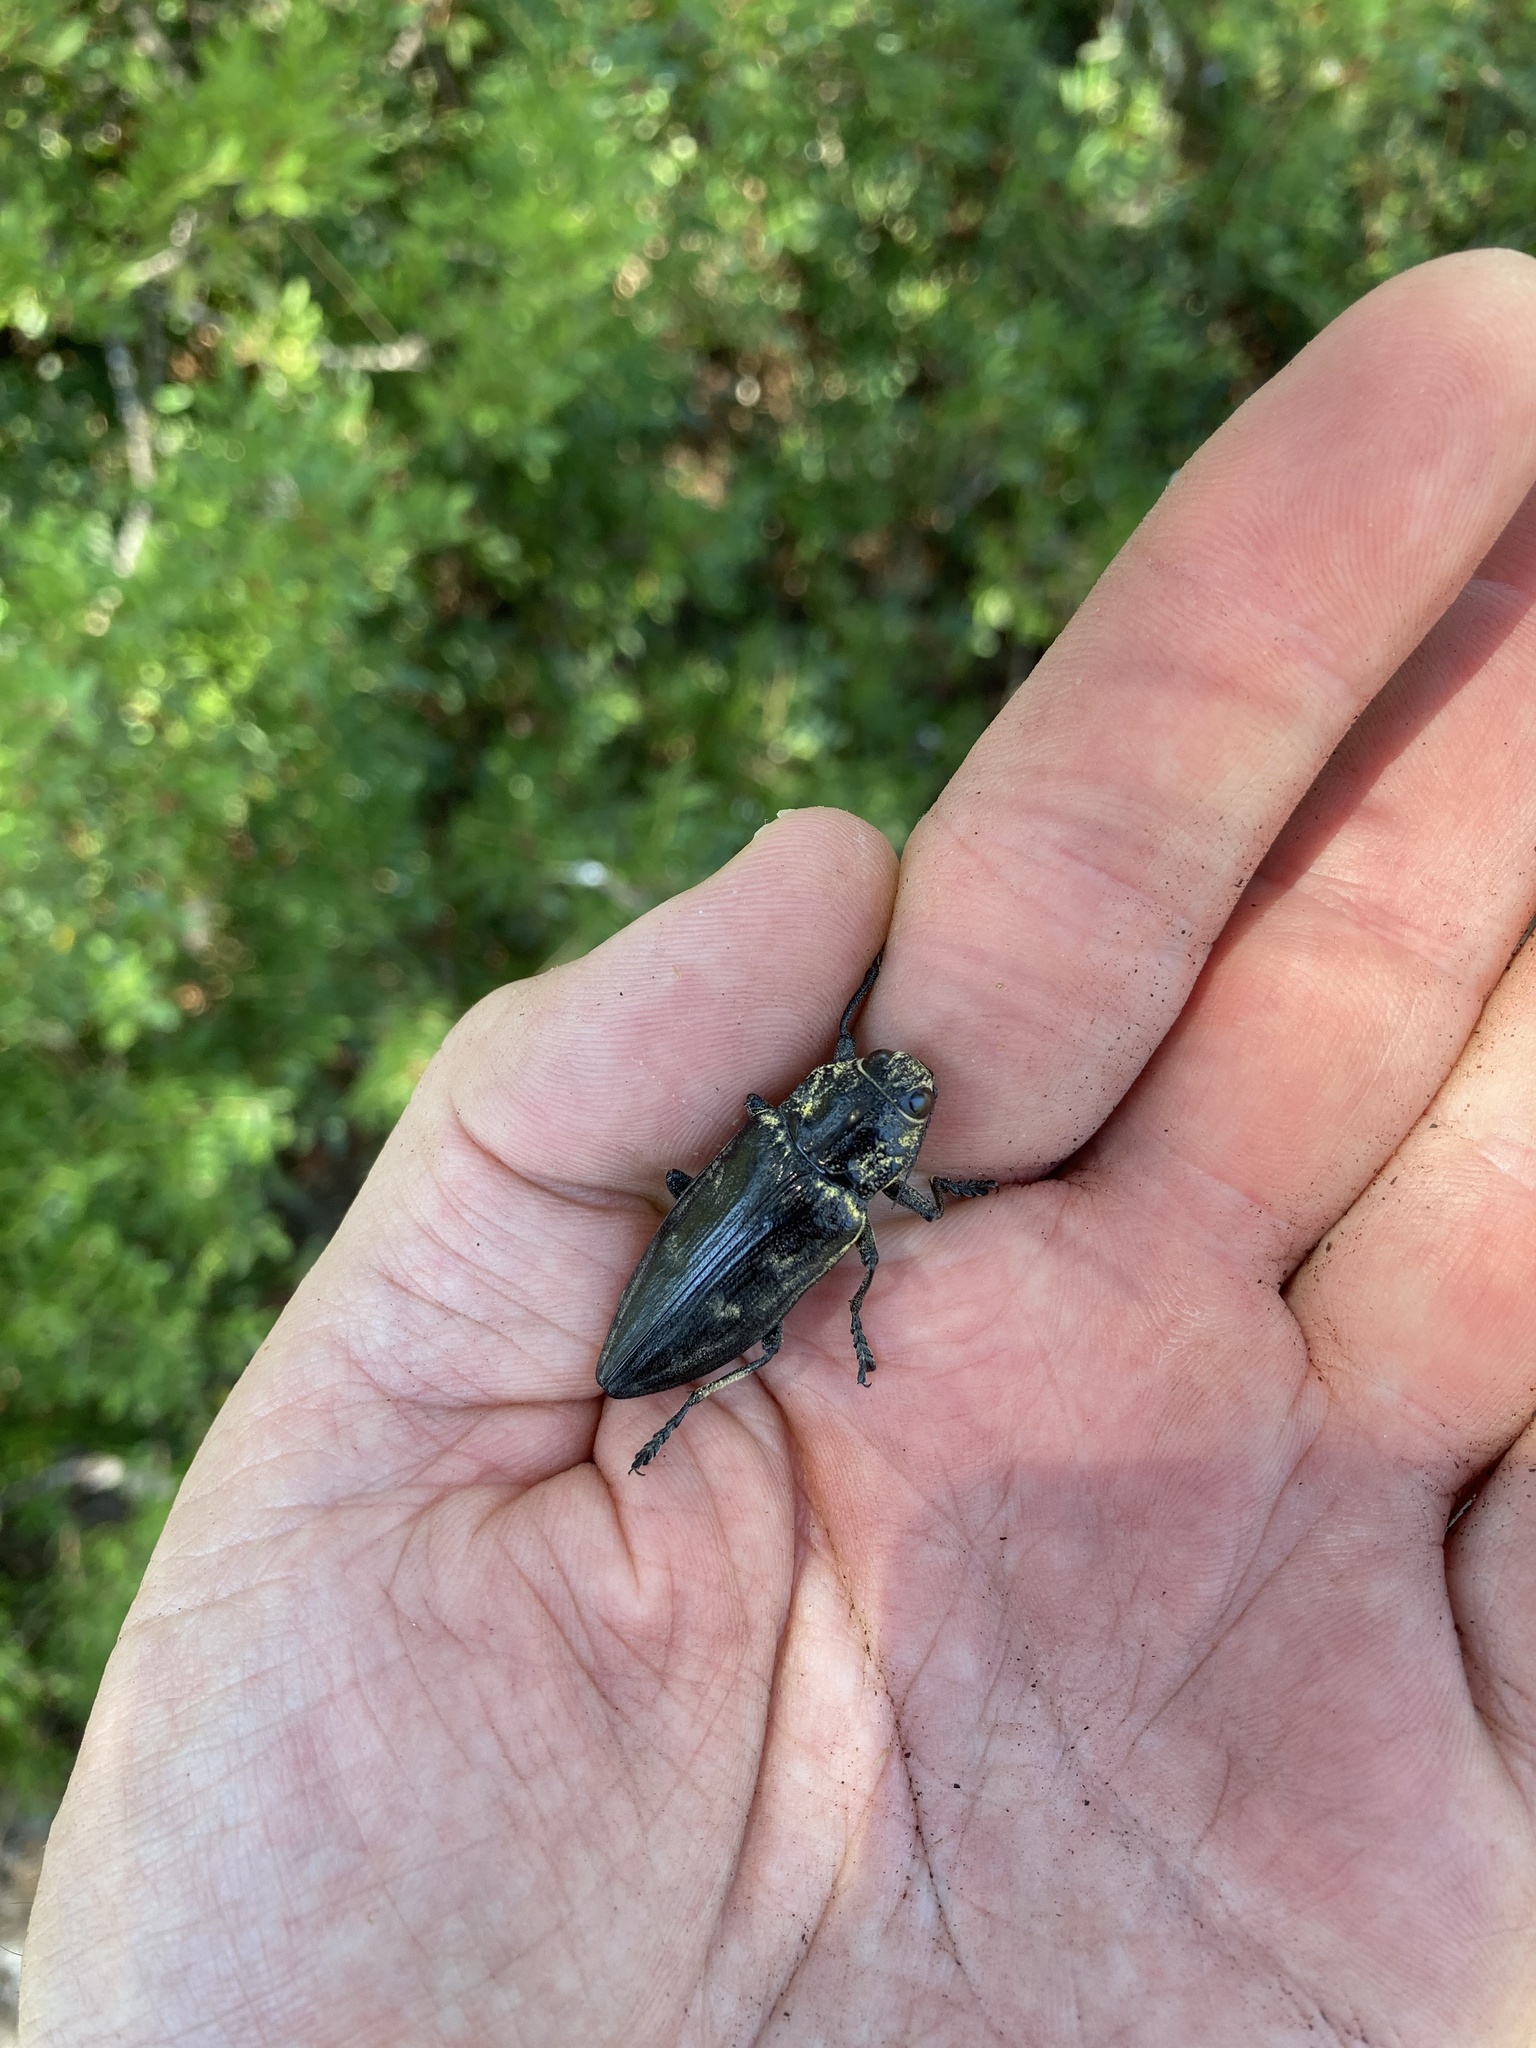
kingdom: Animalia
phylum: Arthropoda
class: Insecta
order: Coleoptera
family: Buprestidae
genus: Chalcophora
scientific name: Chalcophora detrita
